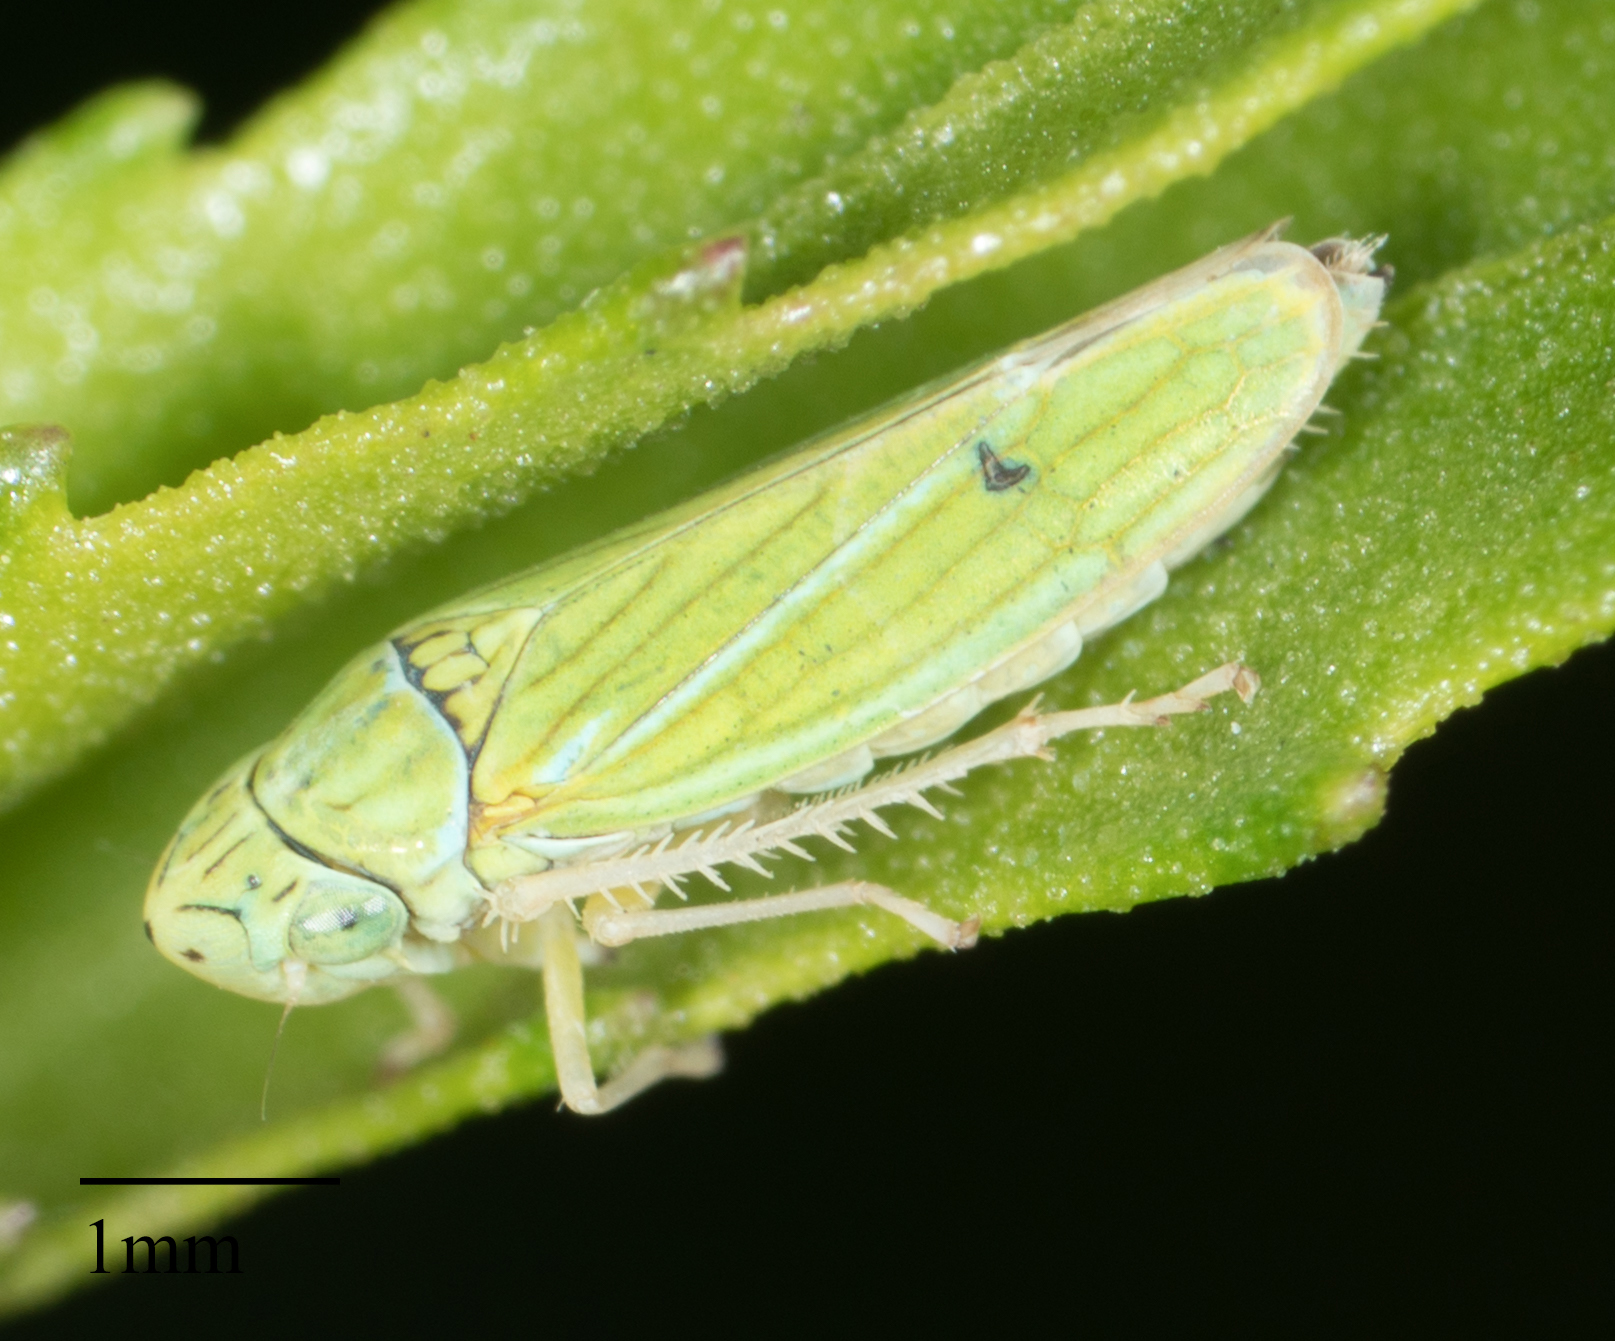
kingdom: Animalia
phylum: Arthropoda
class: Insecta
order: Hemiptera
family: Cicadellidae
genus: Graphocephala
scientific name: Graphocephala cythura
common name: Leafhopper
